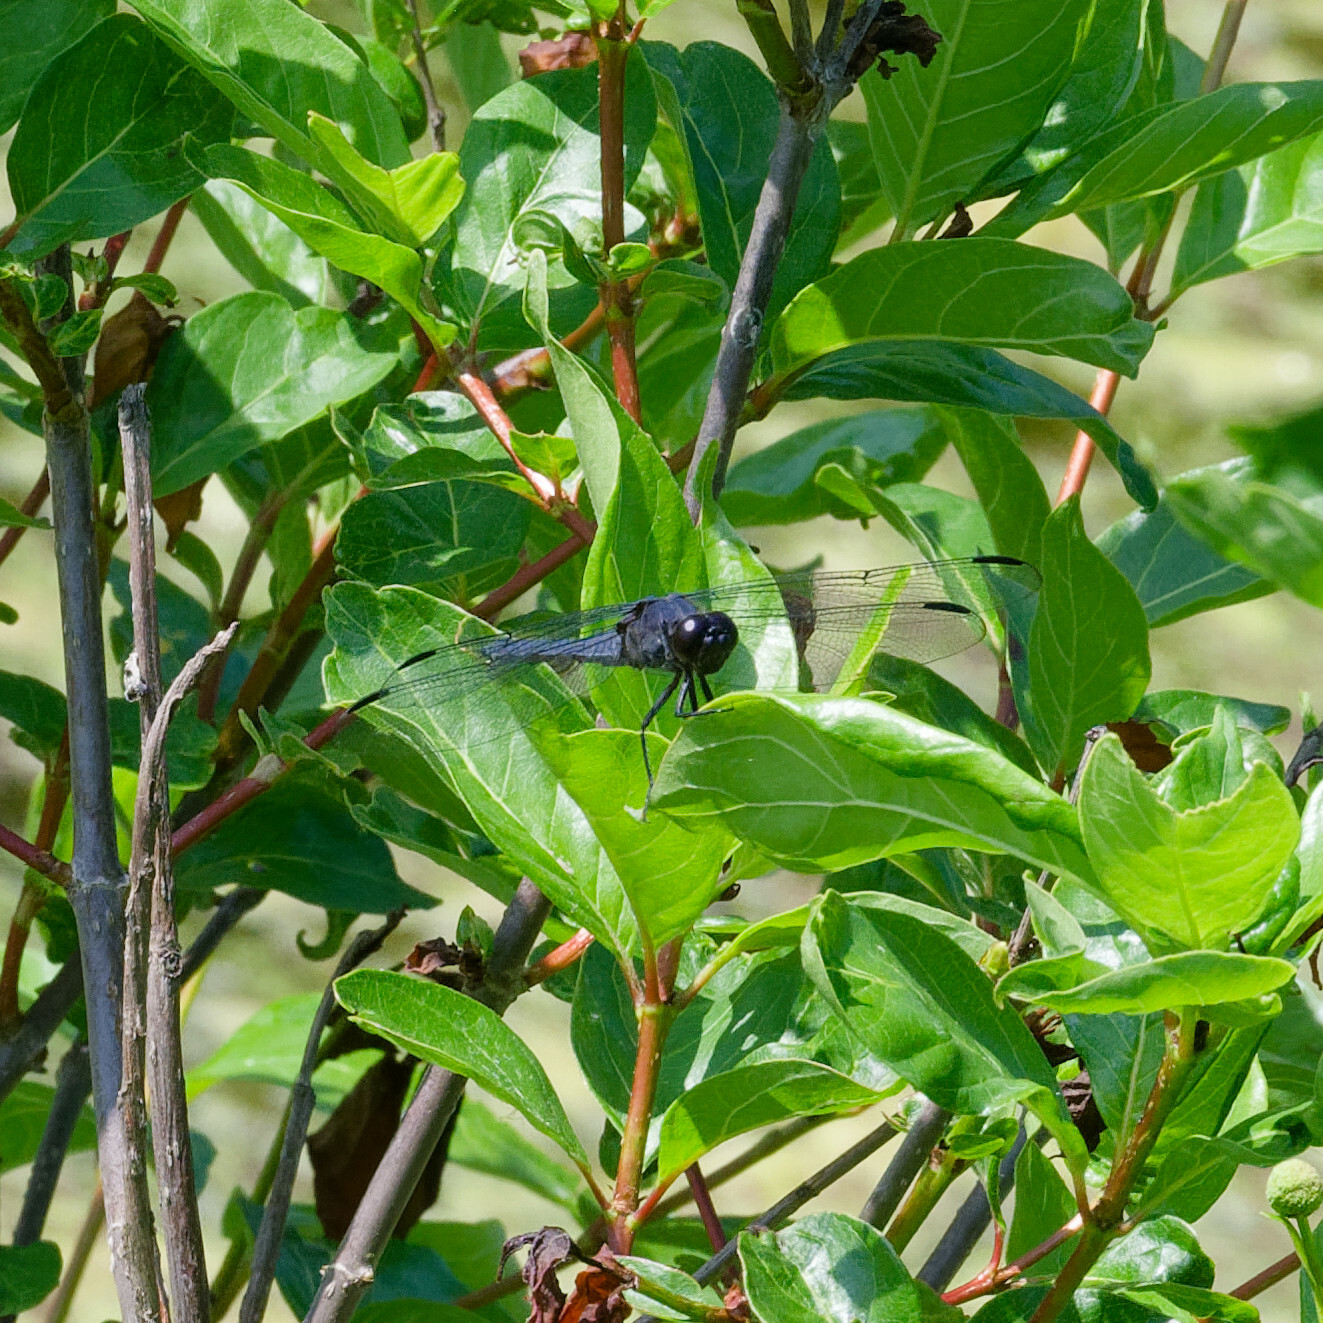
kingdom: Animalia
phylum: Arthropoda
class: Insecta
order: Odonata
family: Libellulidae
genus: Libellula
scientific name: Libellula incesta
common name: Slaty skimmer
